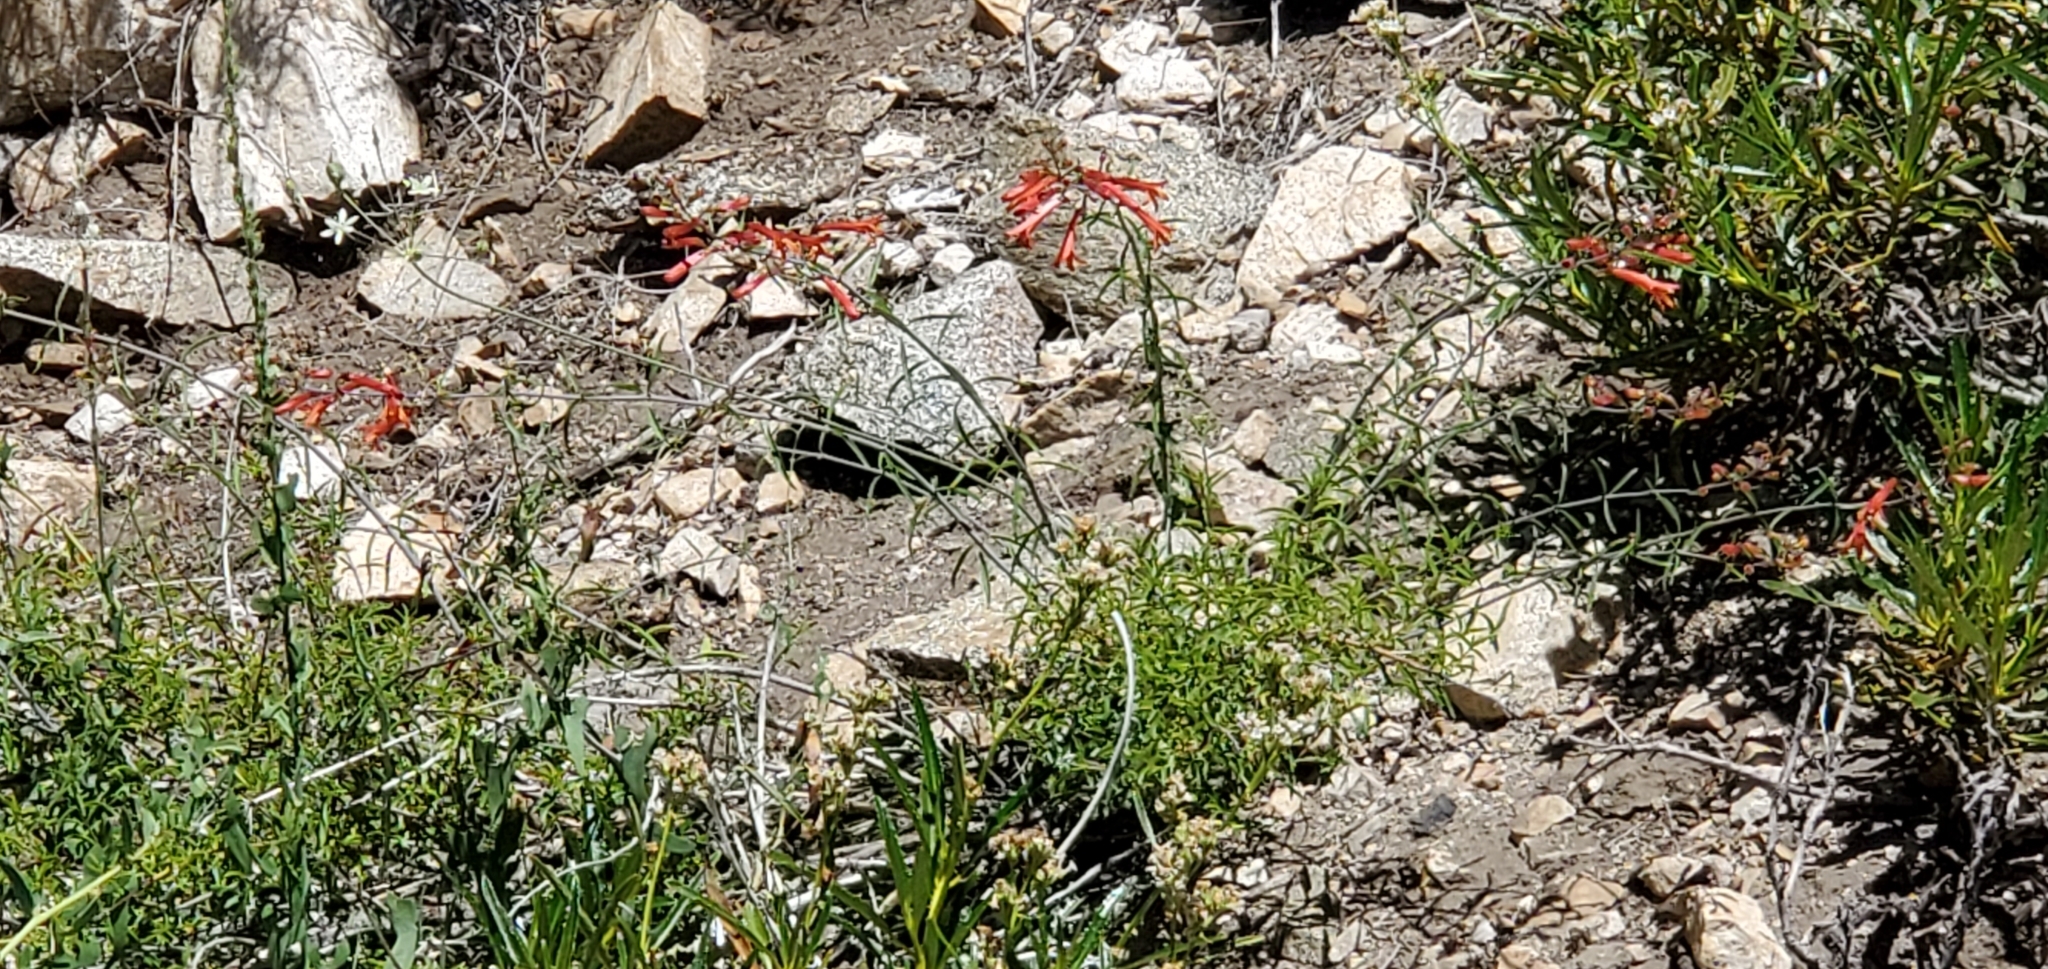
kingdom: Plantae
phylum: Tracheophyta
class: Magnoliopsida
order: Lamiales
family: Plantaginaceae
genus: Keckiella
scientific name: Keckiella ternata
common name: Scarlet keckiella
